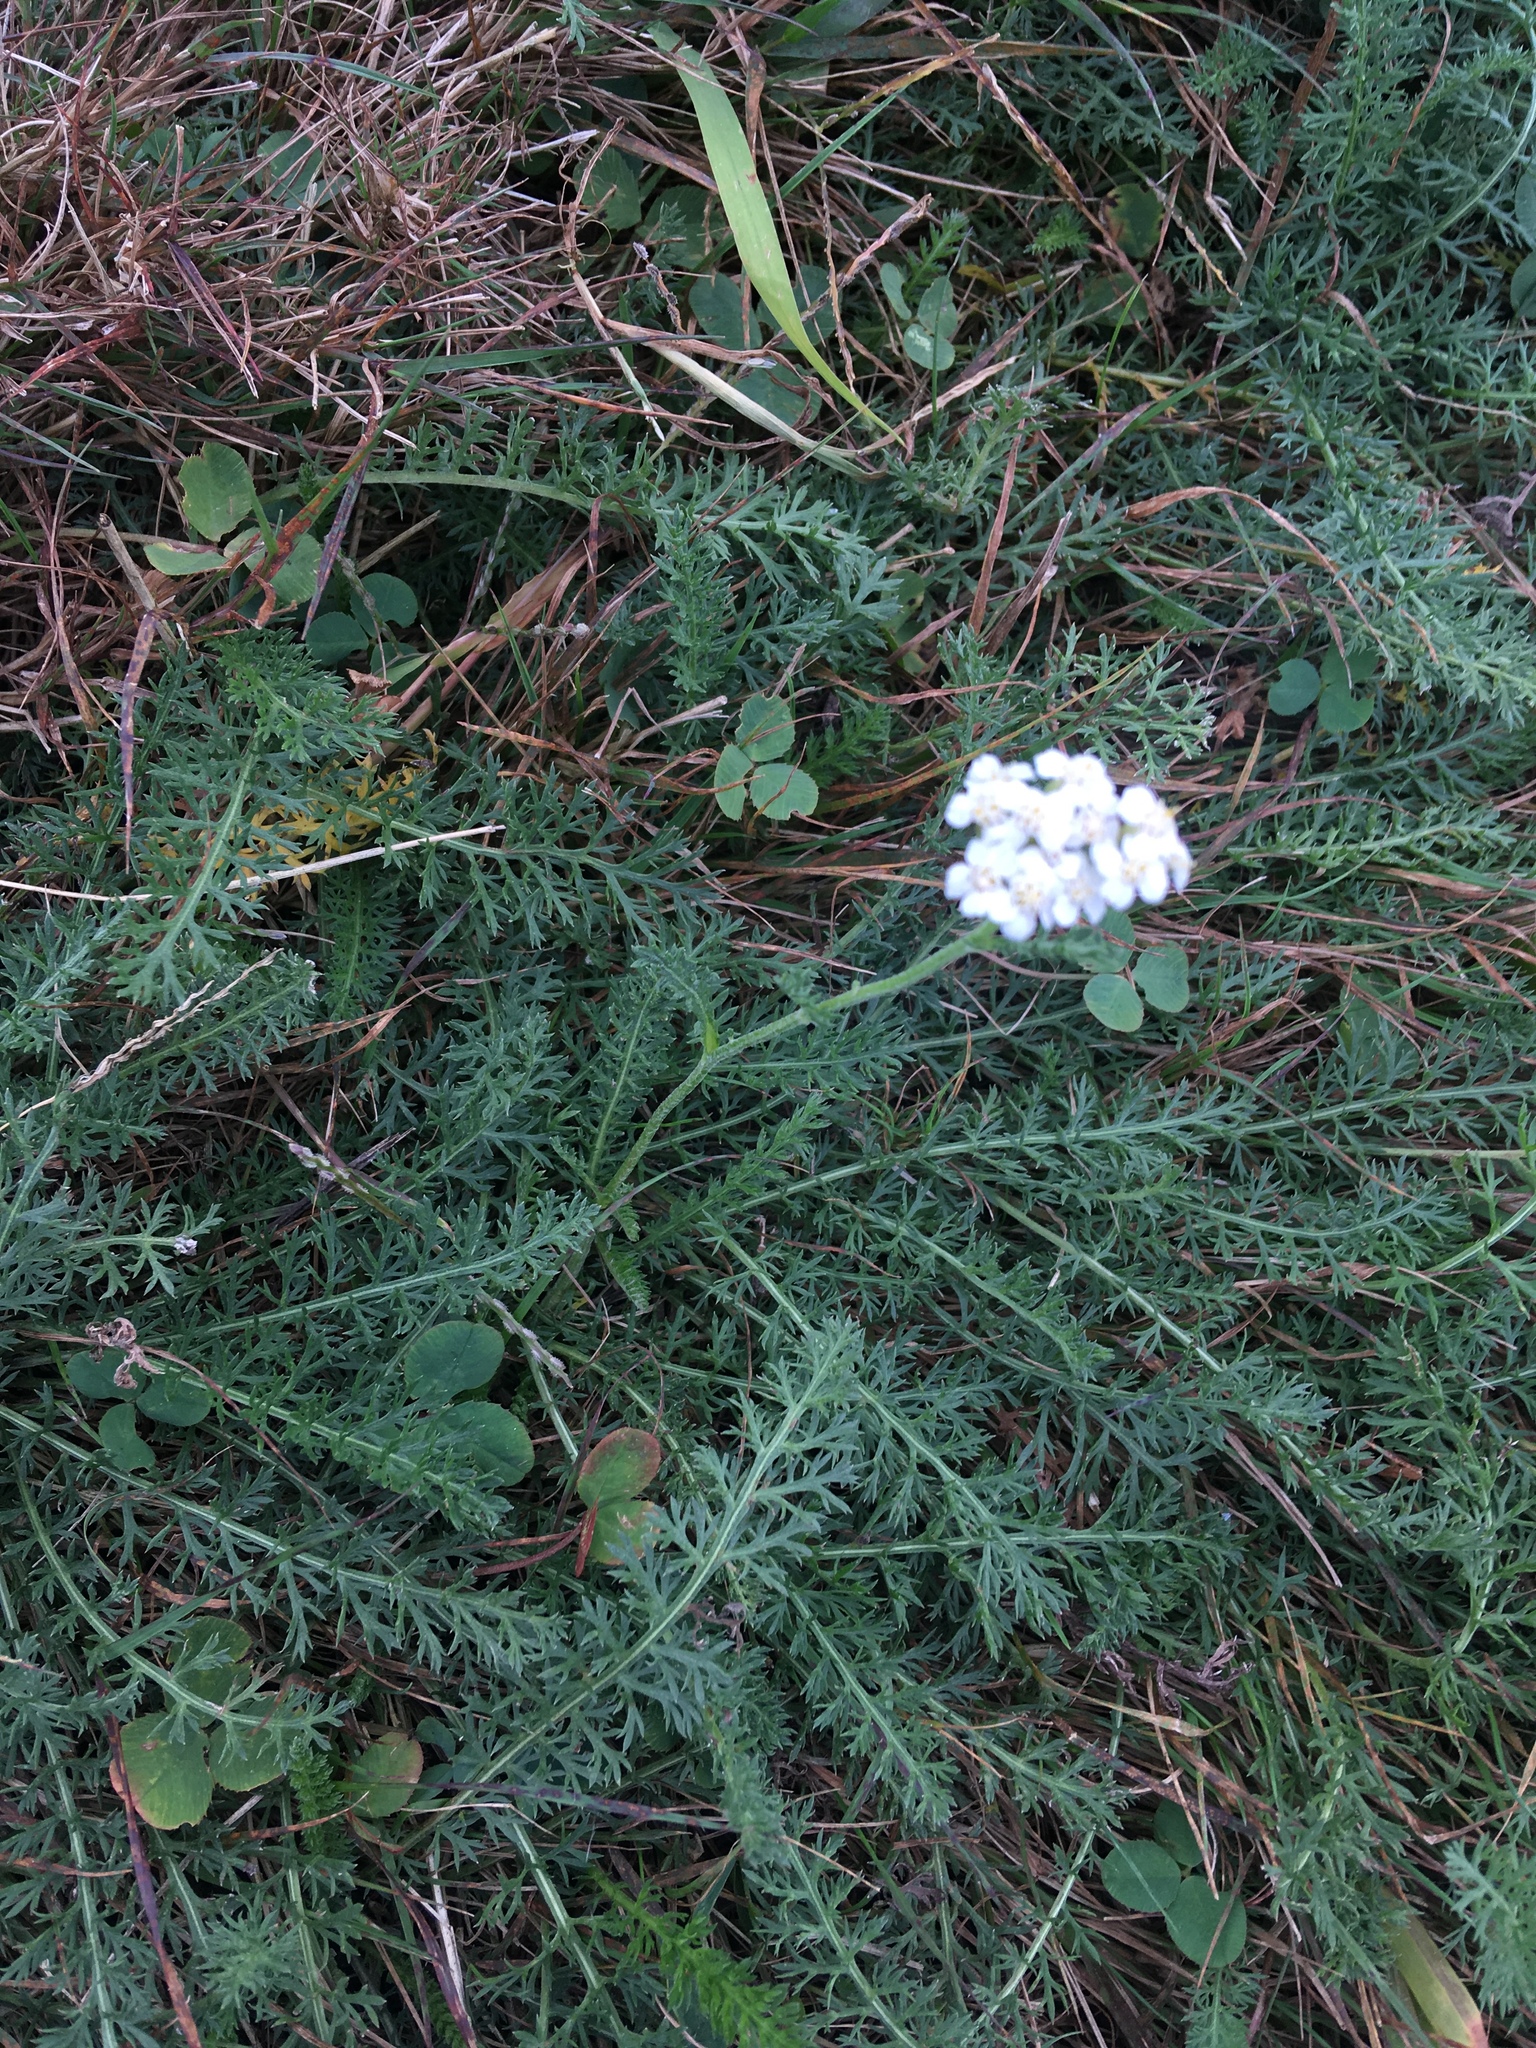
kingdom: Plantae
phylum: Tracheophyta
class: Magnoliopsida
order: Asterales
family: Asteraceae
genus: Achillea
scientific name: Achillea millefolium
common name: Yarrow
